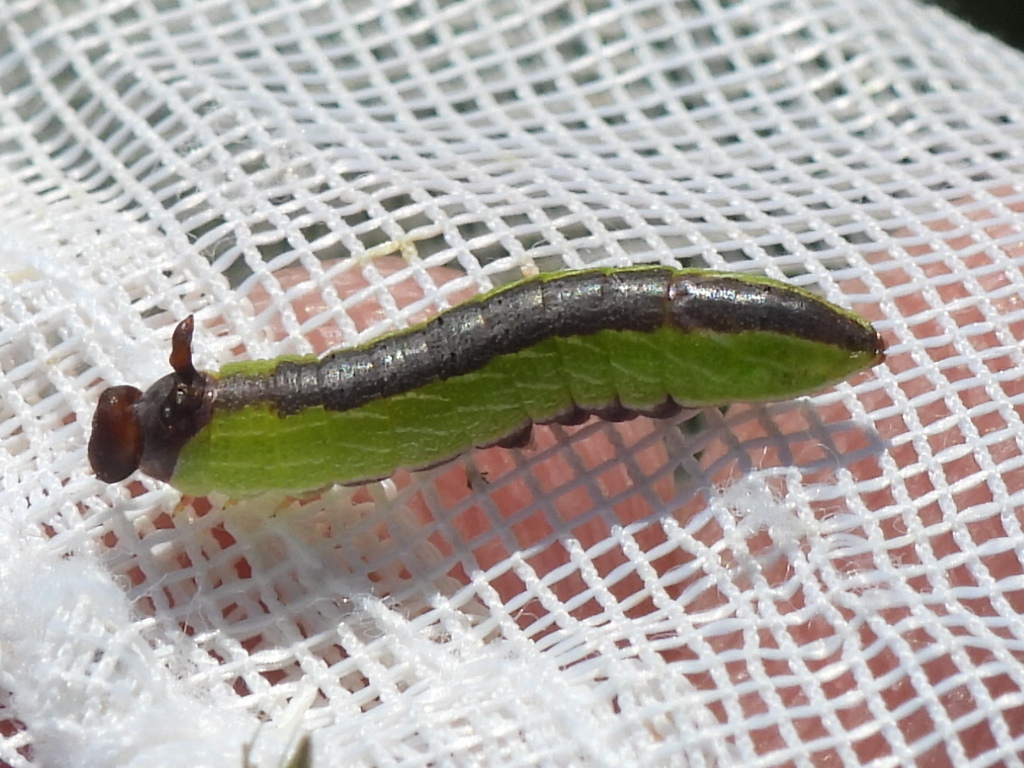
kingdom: Animalia
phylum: Arthropoda
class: Insecta
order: Lepidoptera
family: Notodontidae
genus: Litodonta
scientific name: Litodonta hydromeli
